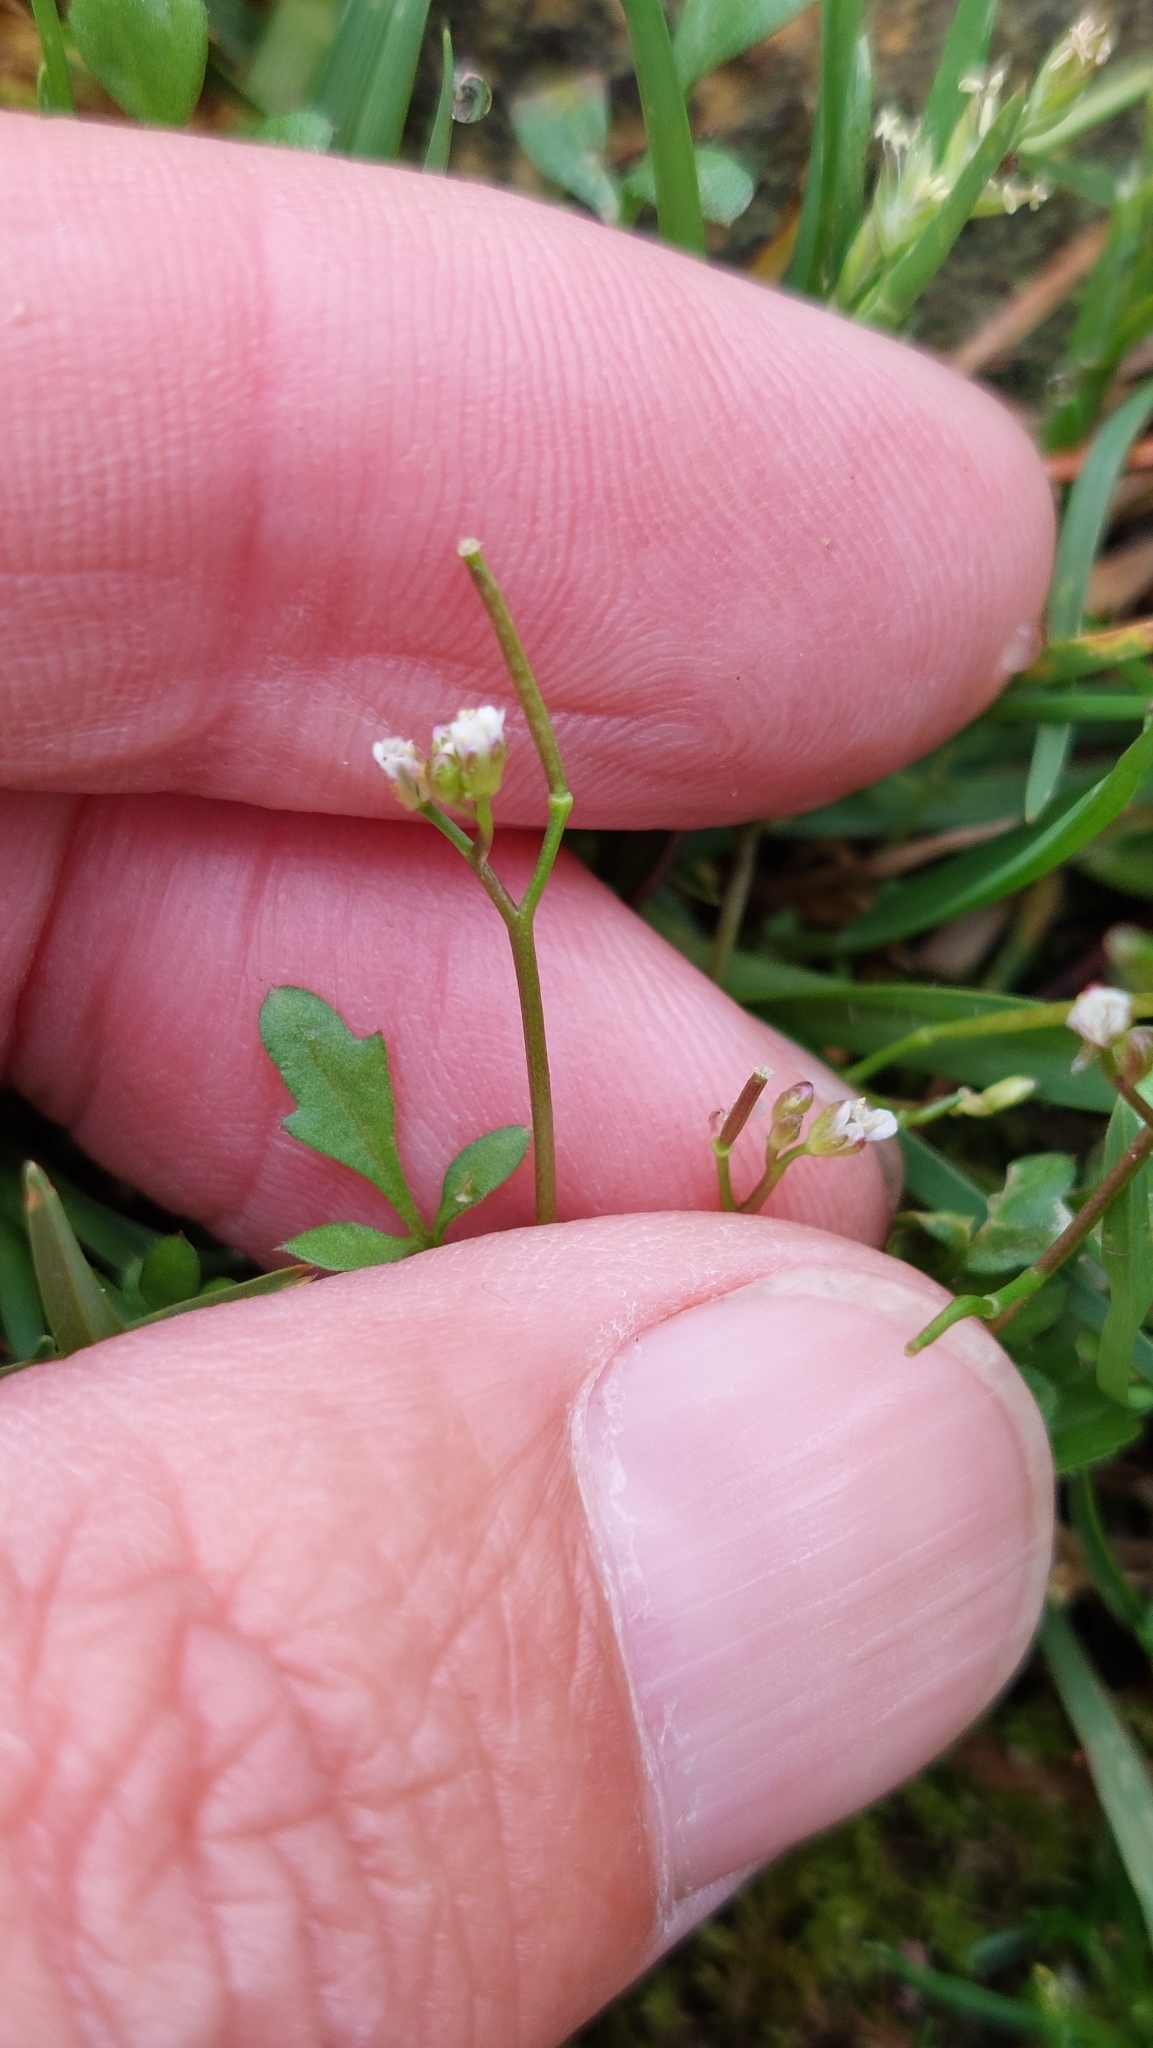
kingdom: Plantae
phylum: Tracheophyta
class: Magnoliopsida
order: Brassicales
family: Brassicaceae
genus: Cardamine
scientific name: Cardamine hirsuta
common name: Hairy bittercress
